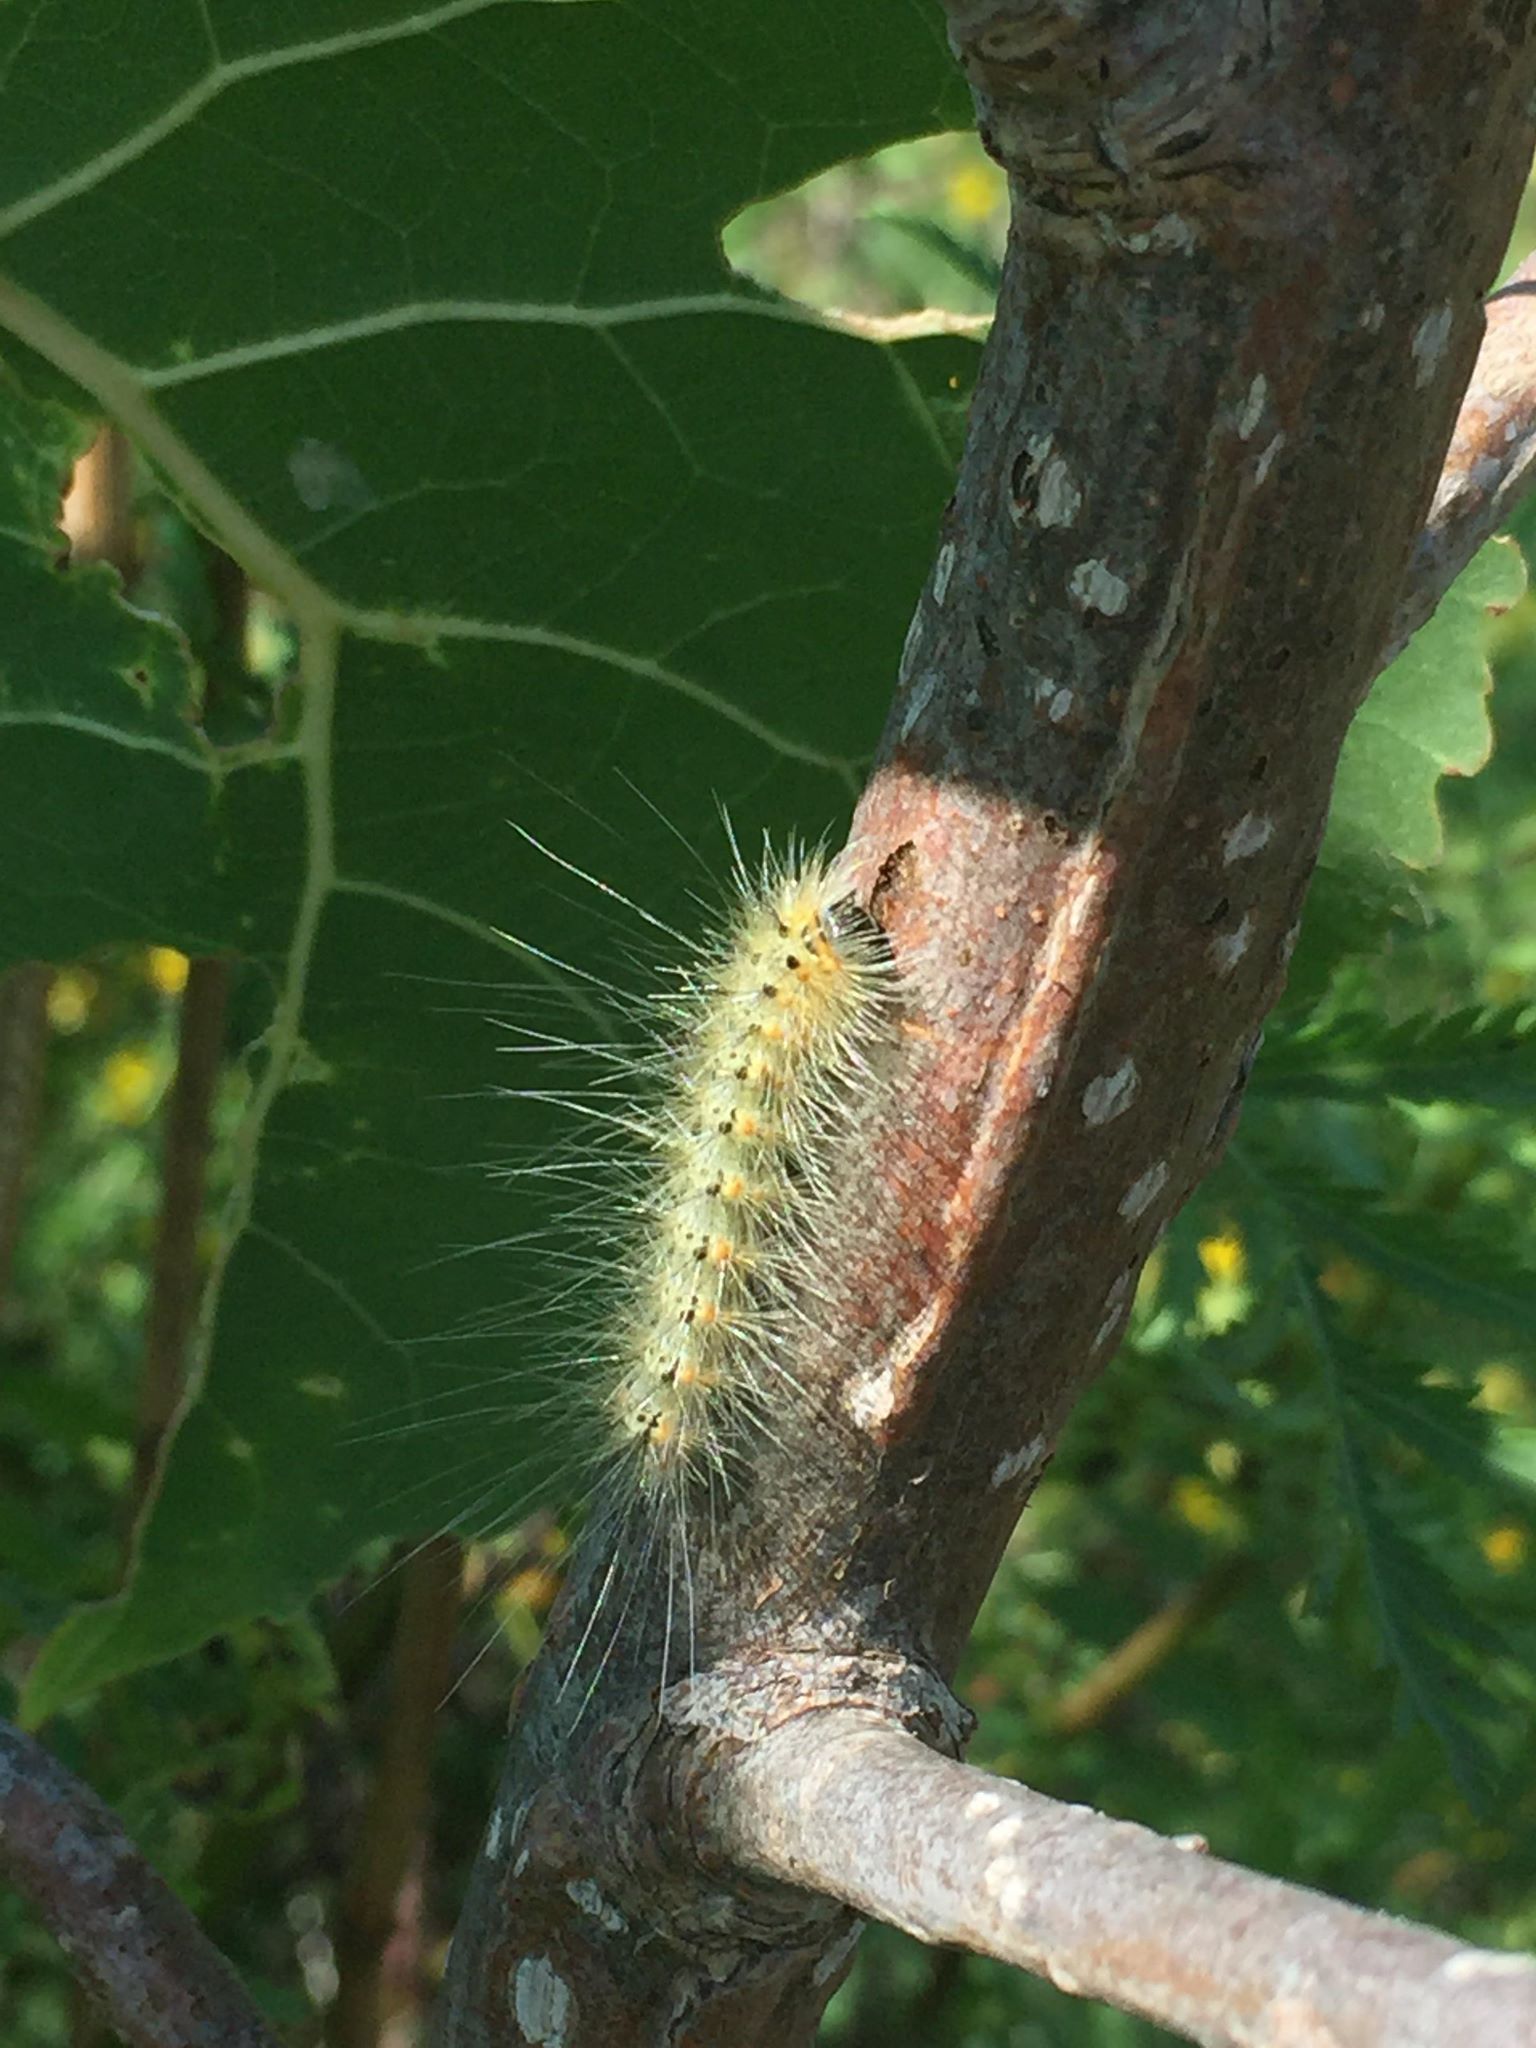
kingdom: Animalia
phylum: Arthropoda
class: Insecta
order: Lepidoptera
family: Erebidae
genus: Hyphantria
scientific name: Hyphantria cunea
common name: American white moth
